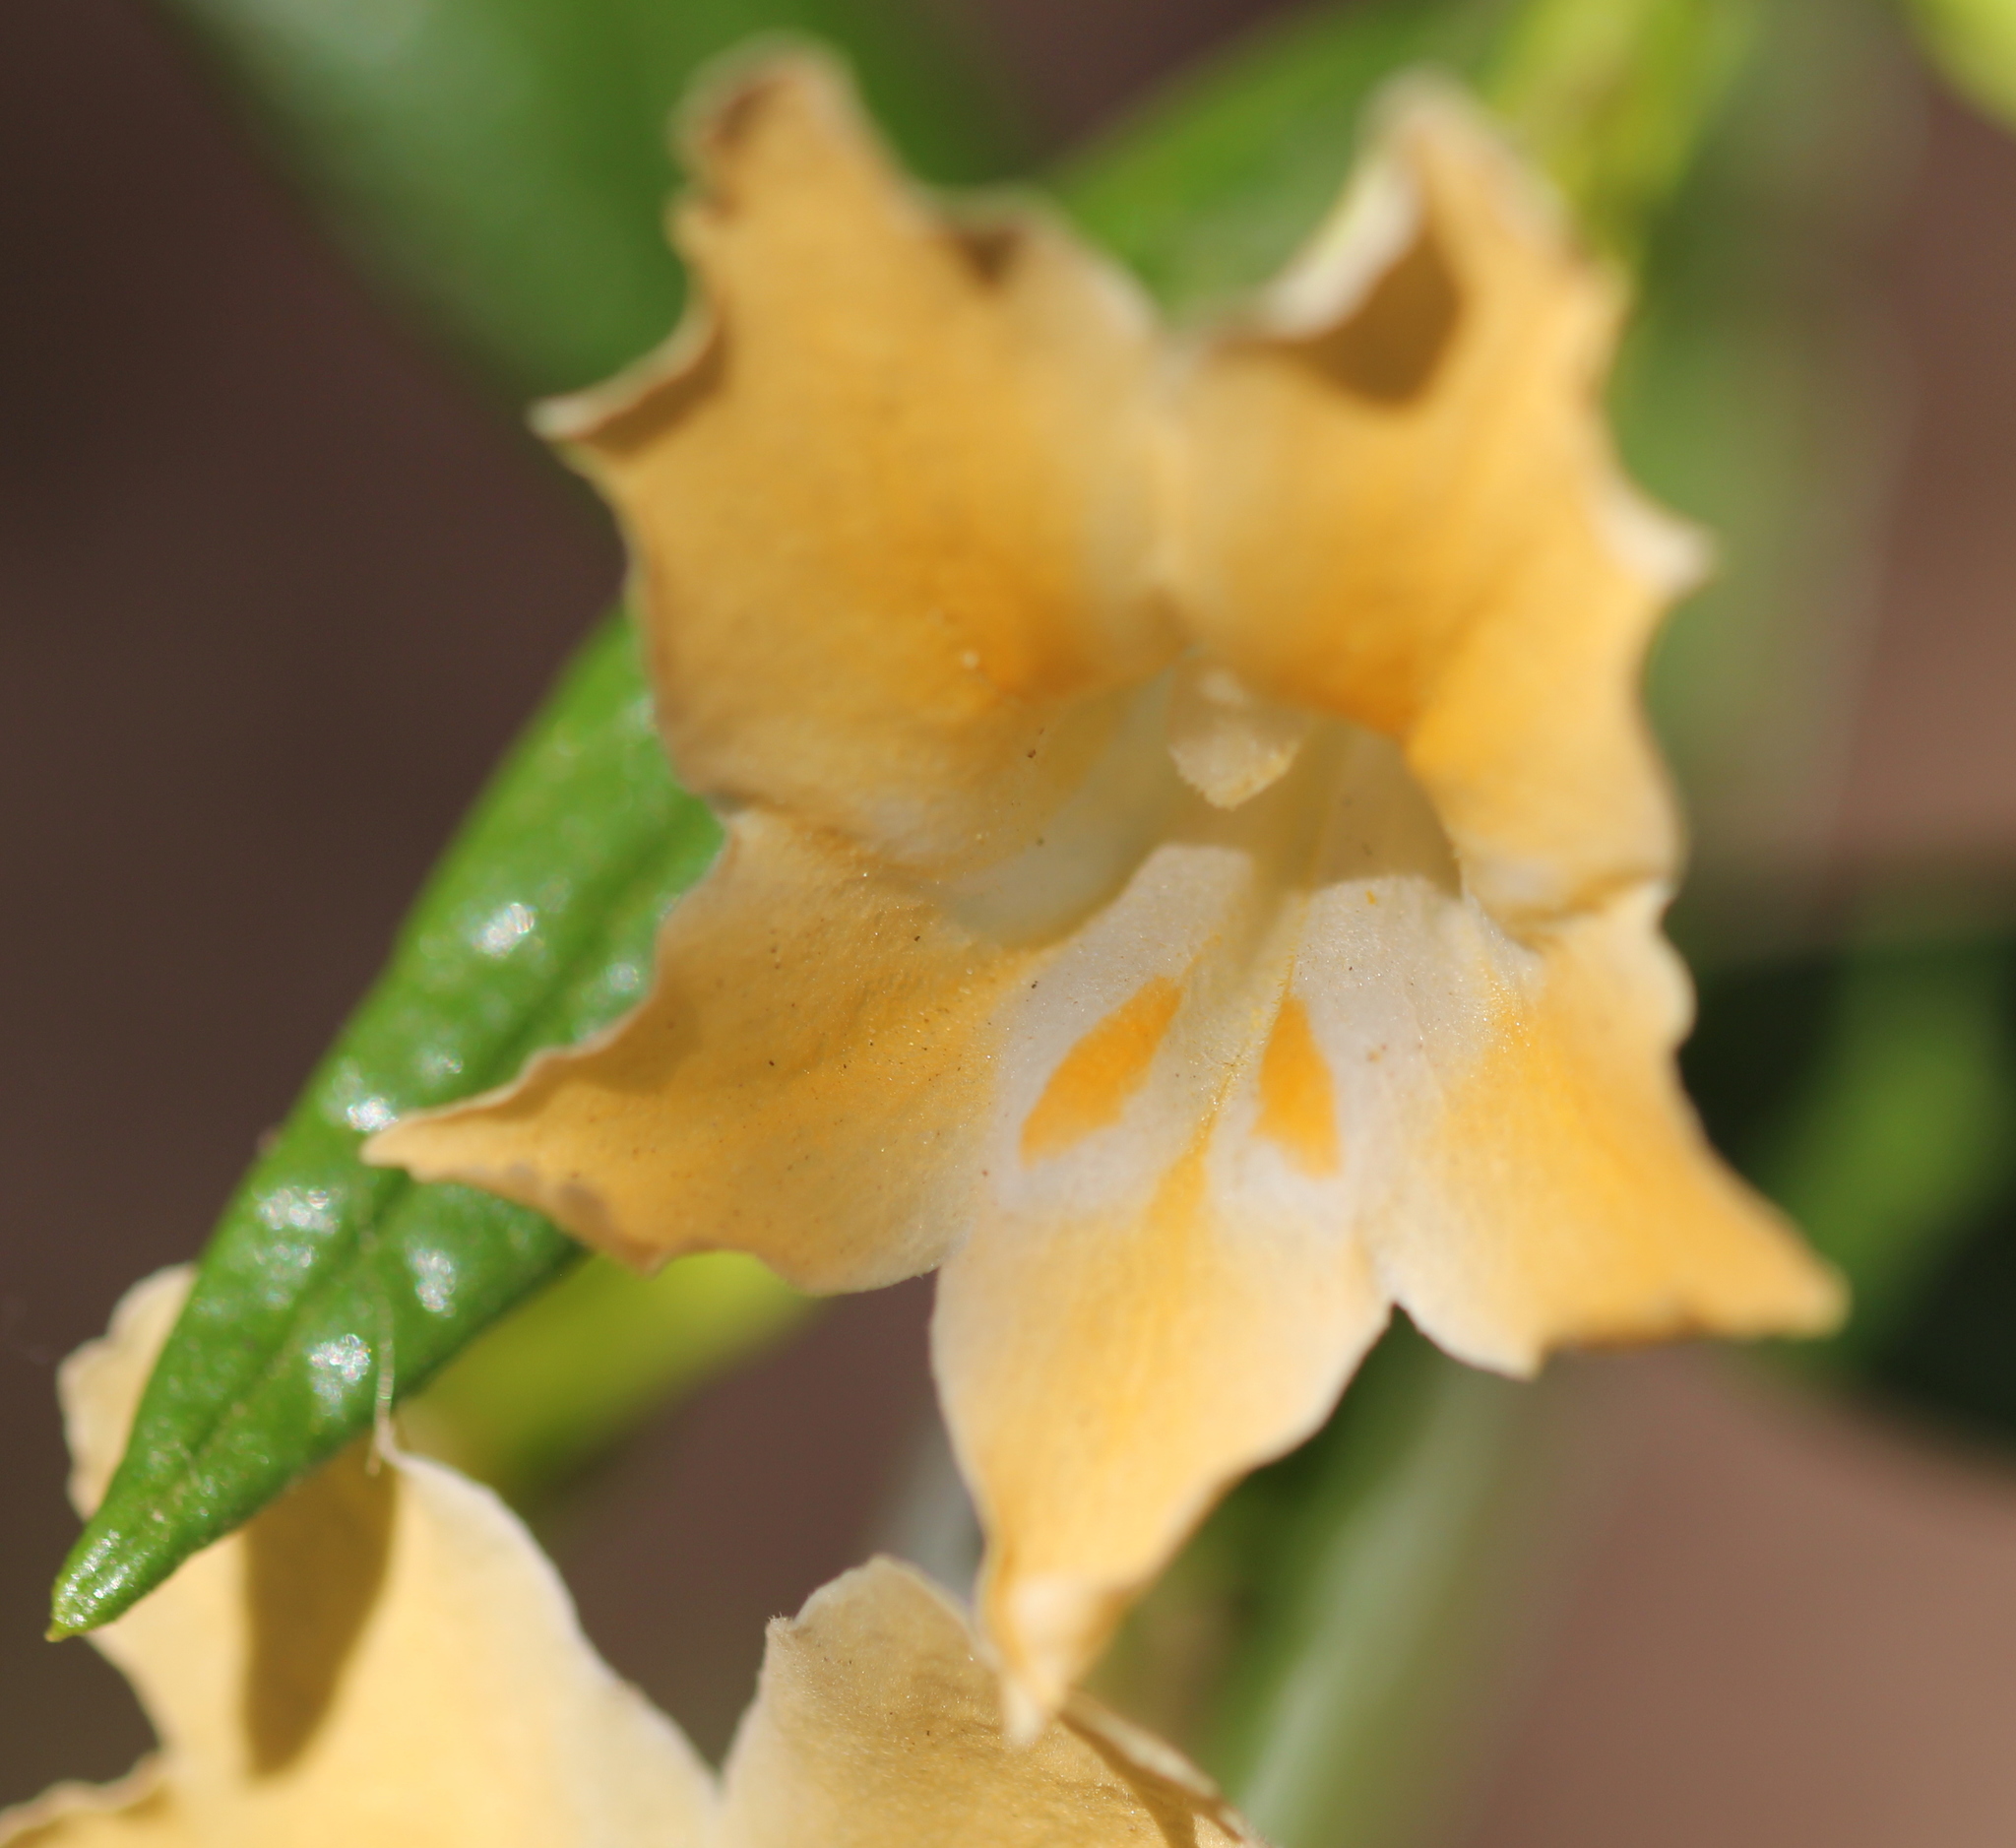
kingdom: Plantae
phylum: Tracheophyta
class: Magnoliopsida
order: Lamiales
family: Phrymaceae
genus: Diplacus
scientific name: Diplacus australis
